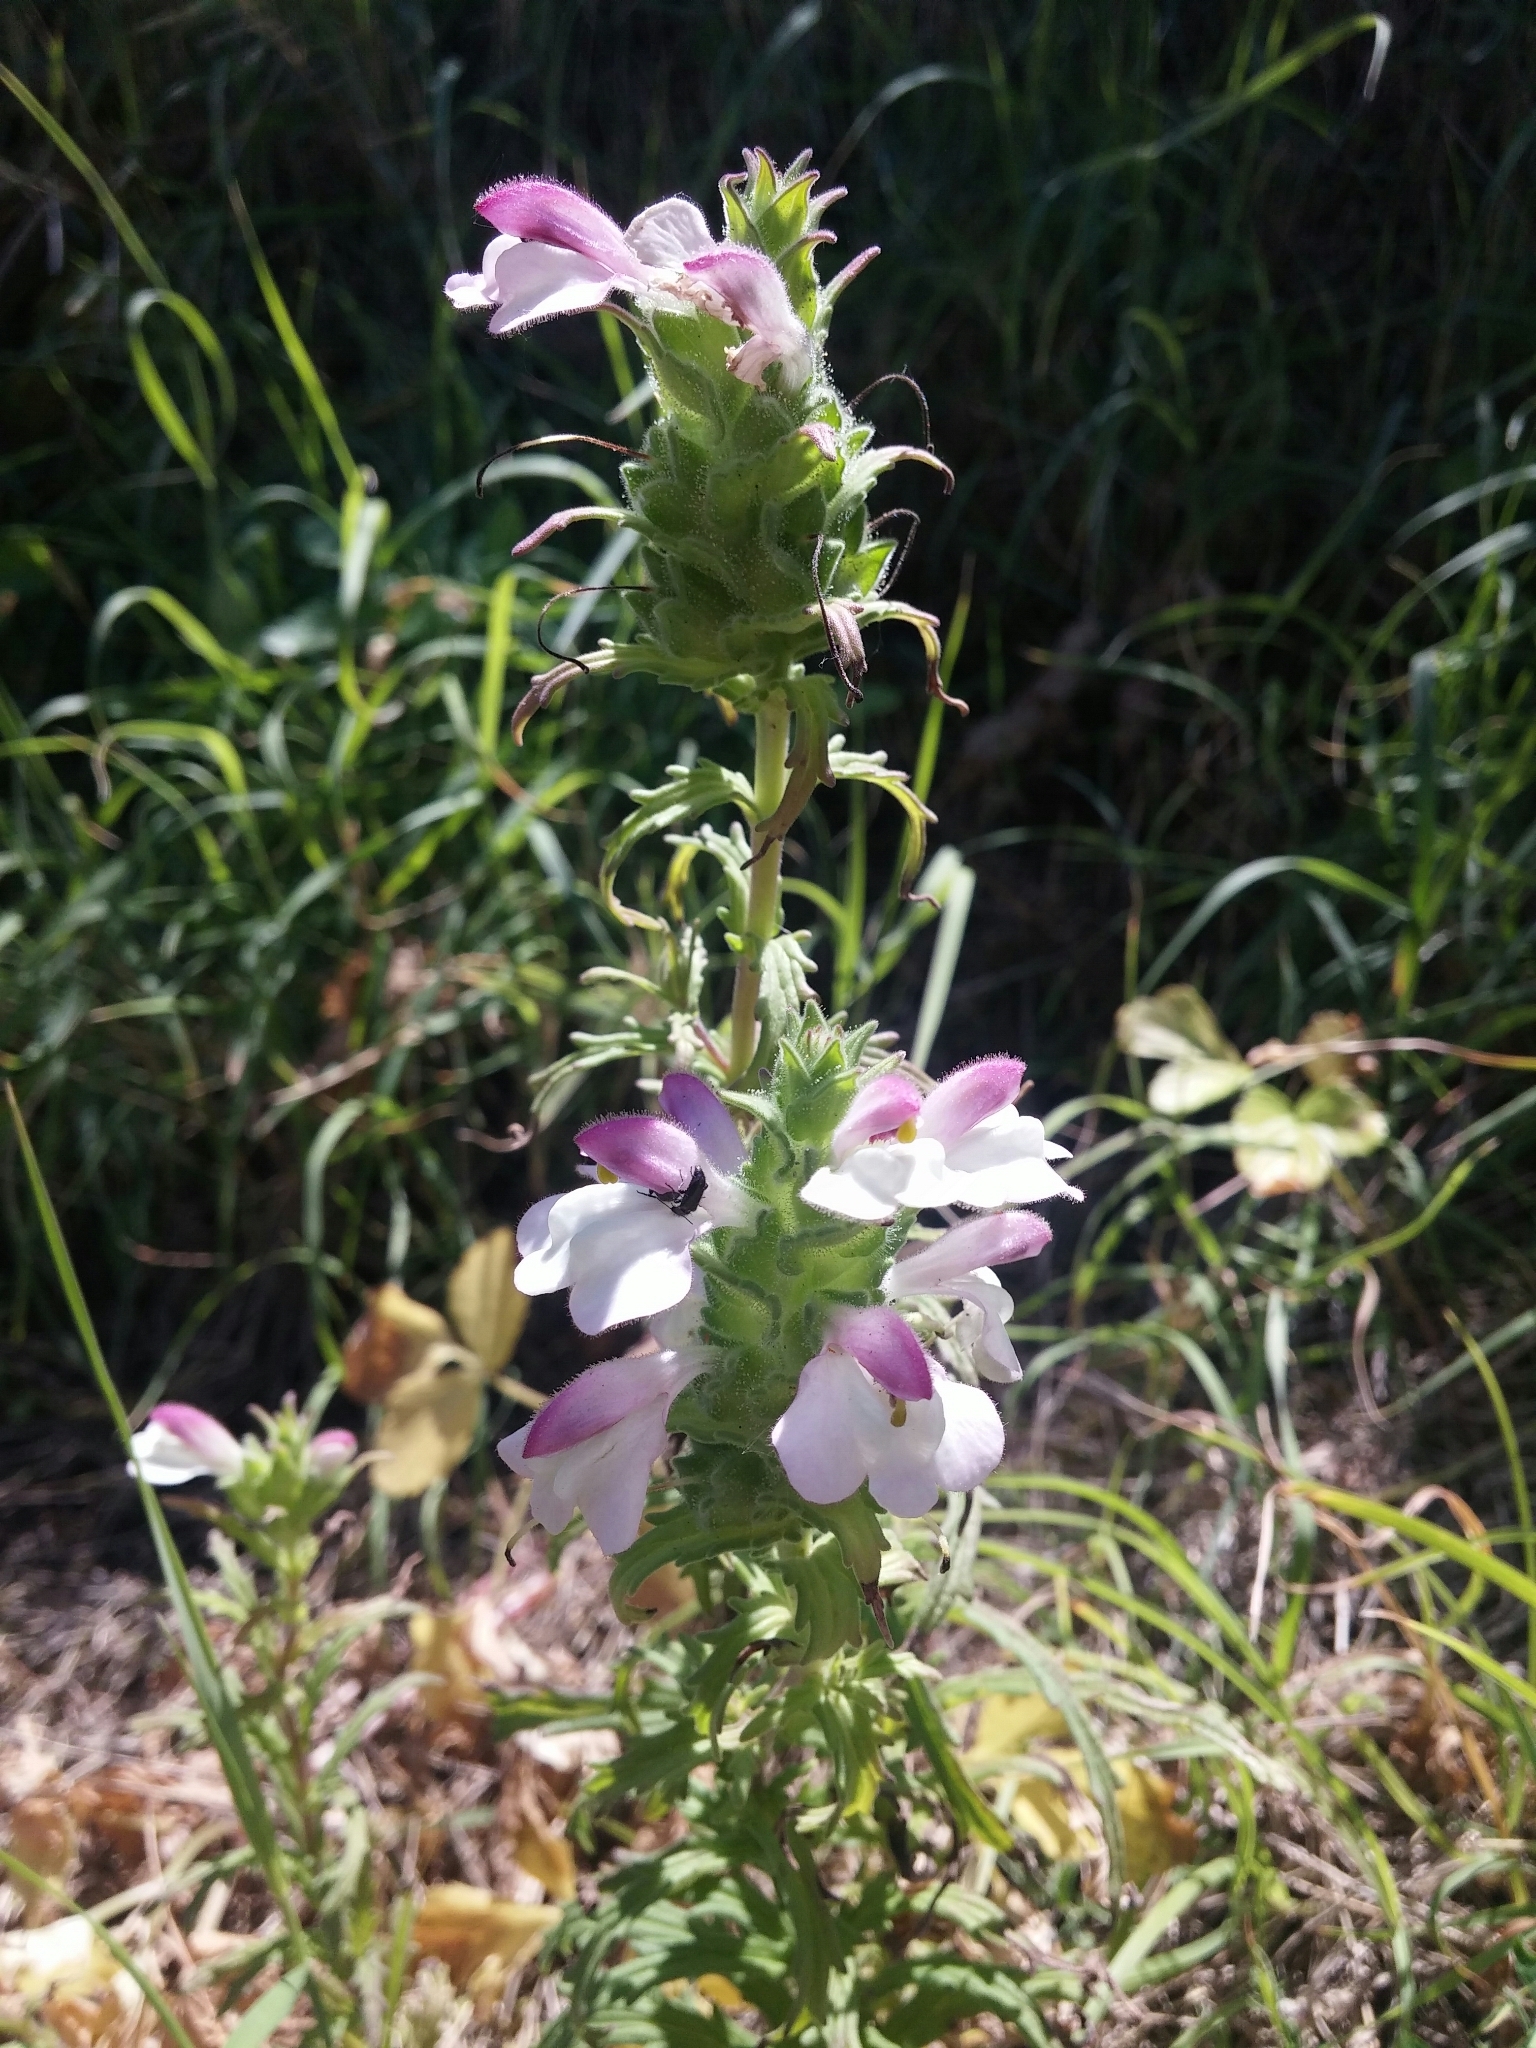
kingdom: Plantae
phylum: Tracheophyta
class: Magnoliopsida
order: Lamiales
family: Orobanchaceae
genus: Bellardia
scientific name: Bellardia trixago
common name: Mediterranean lineseed
